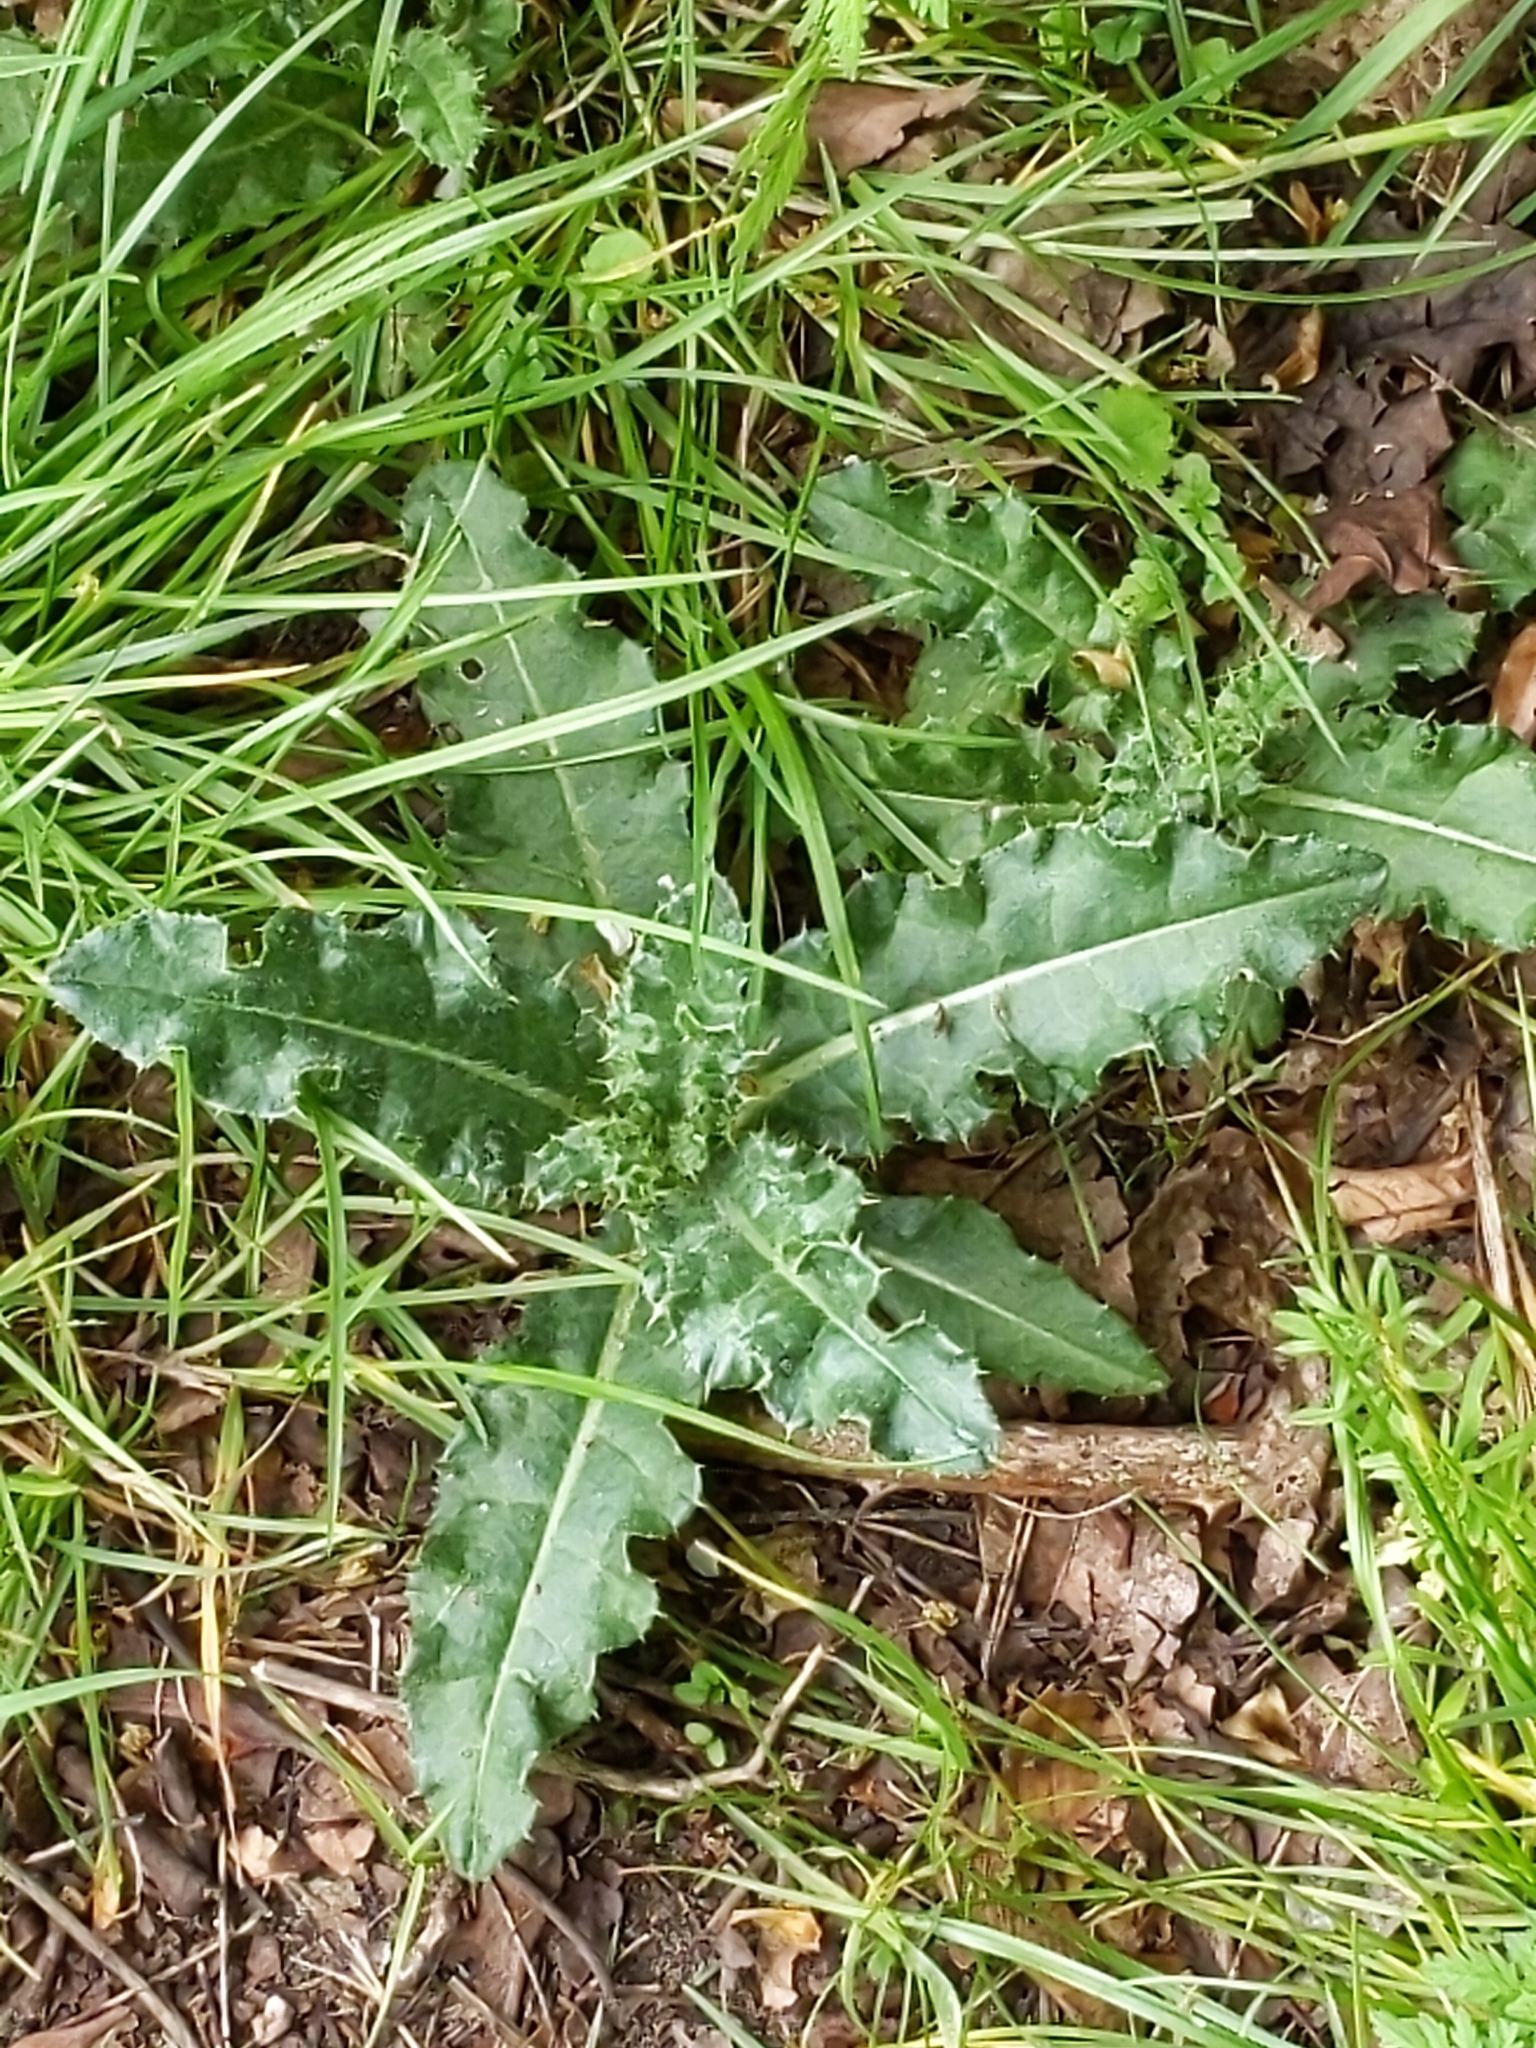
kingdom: Plantae
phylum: Tracheophyta
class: Magnoliopsida
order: Asterales
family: Asteraceae
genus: Cirsium
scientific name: Cirsium arvense
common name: Creeping thistle
